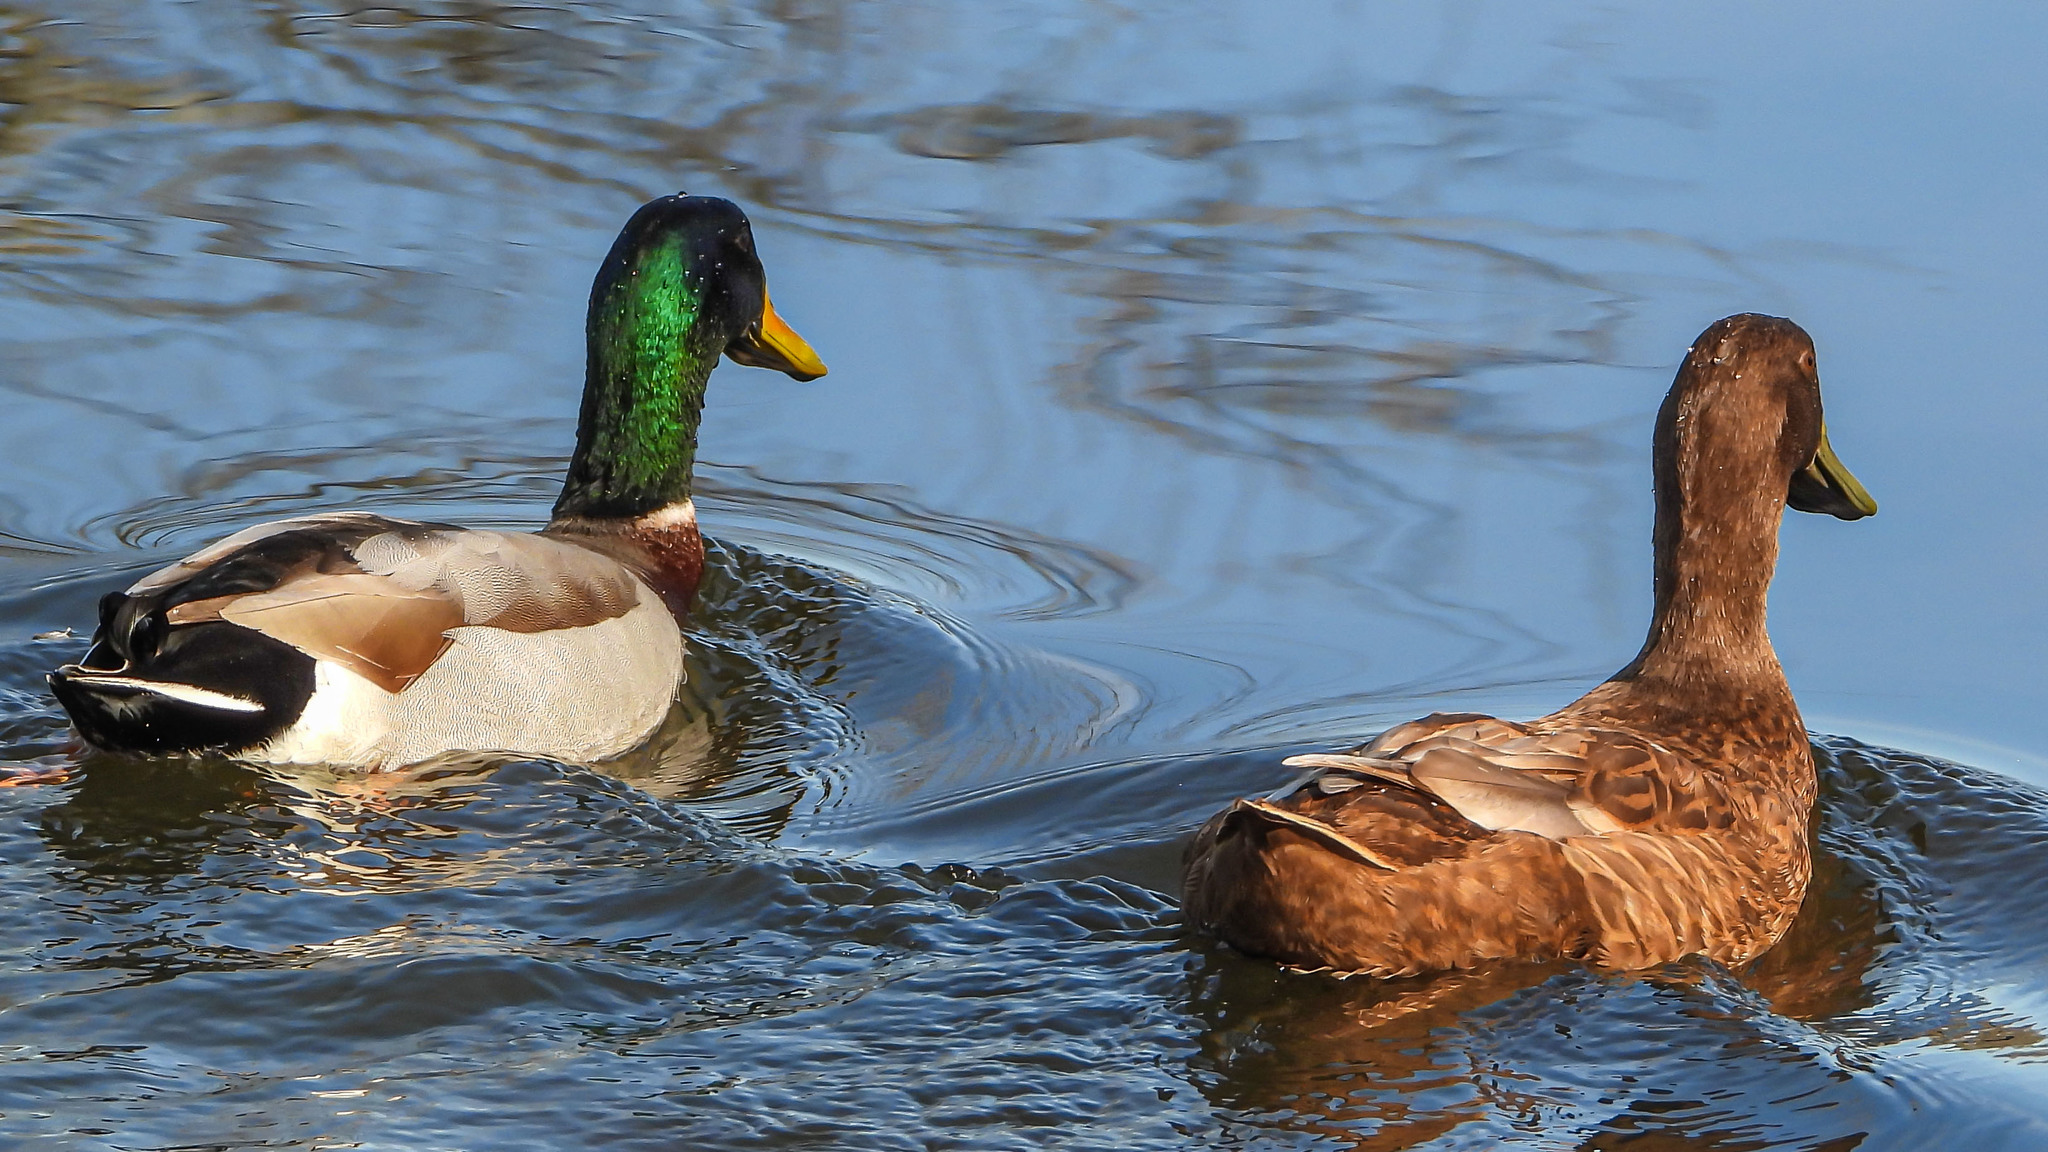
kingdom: Animalia
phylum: Chordata
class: Aves
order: Anseriformes
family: Anatidae
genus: Anas
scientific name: Anas platyrhynchos
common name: Mallard
